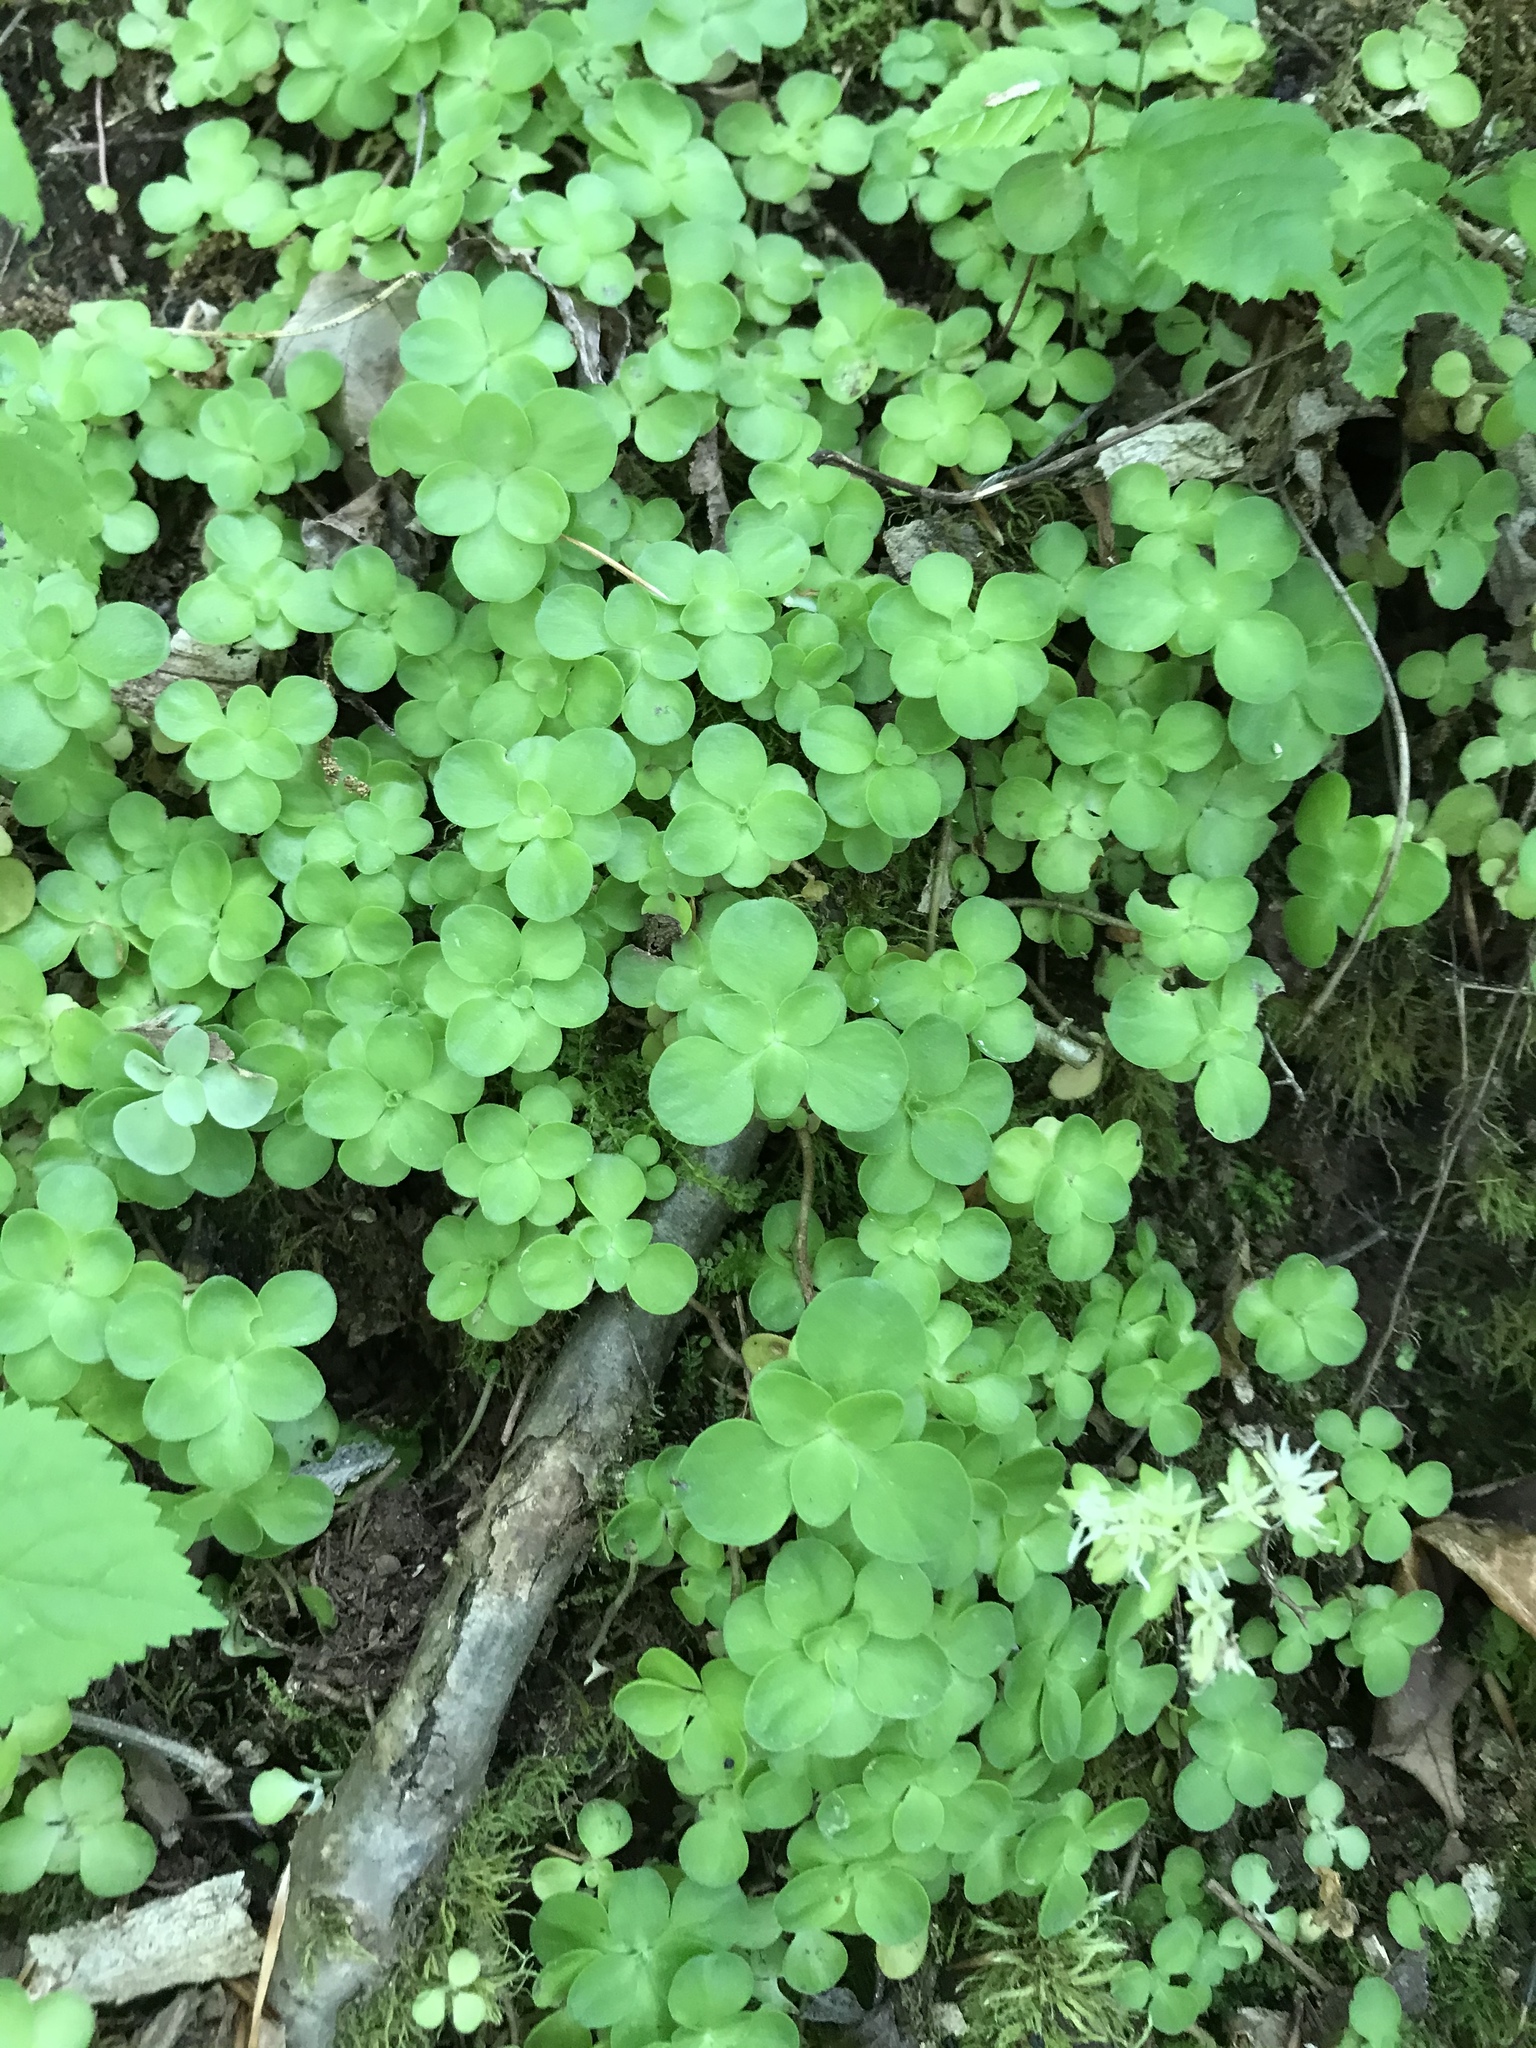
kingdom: Plantae
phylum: Tracheophyta
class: Magnoliopsida
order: Saxifragales
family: Crassulaceae
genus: Sedum
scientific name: Sedum ternatum
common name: Wild stonecrop
